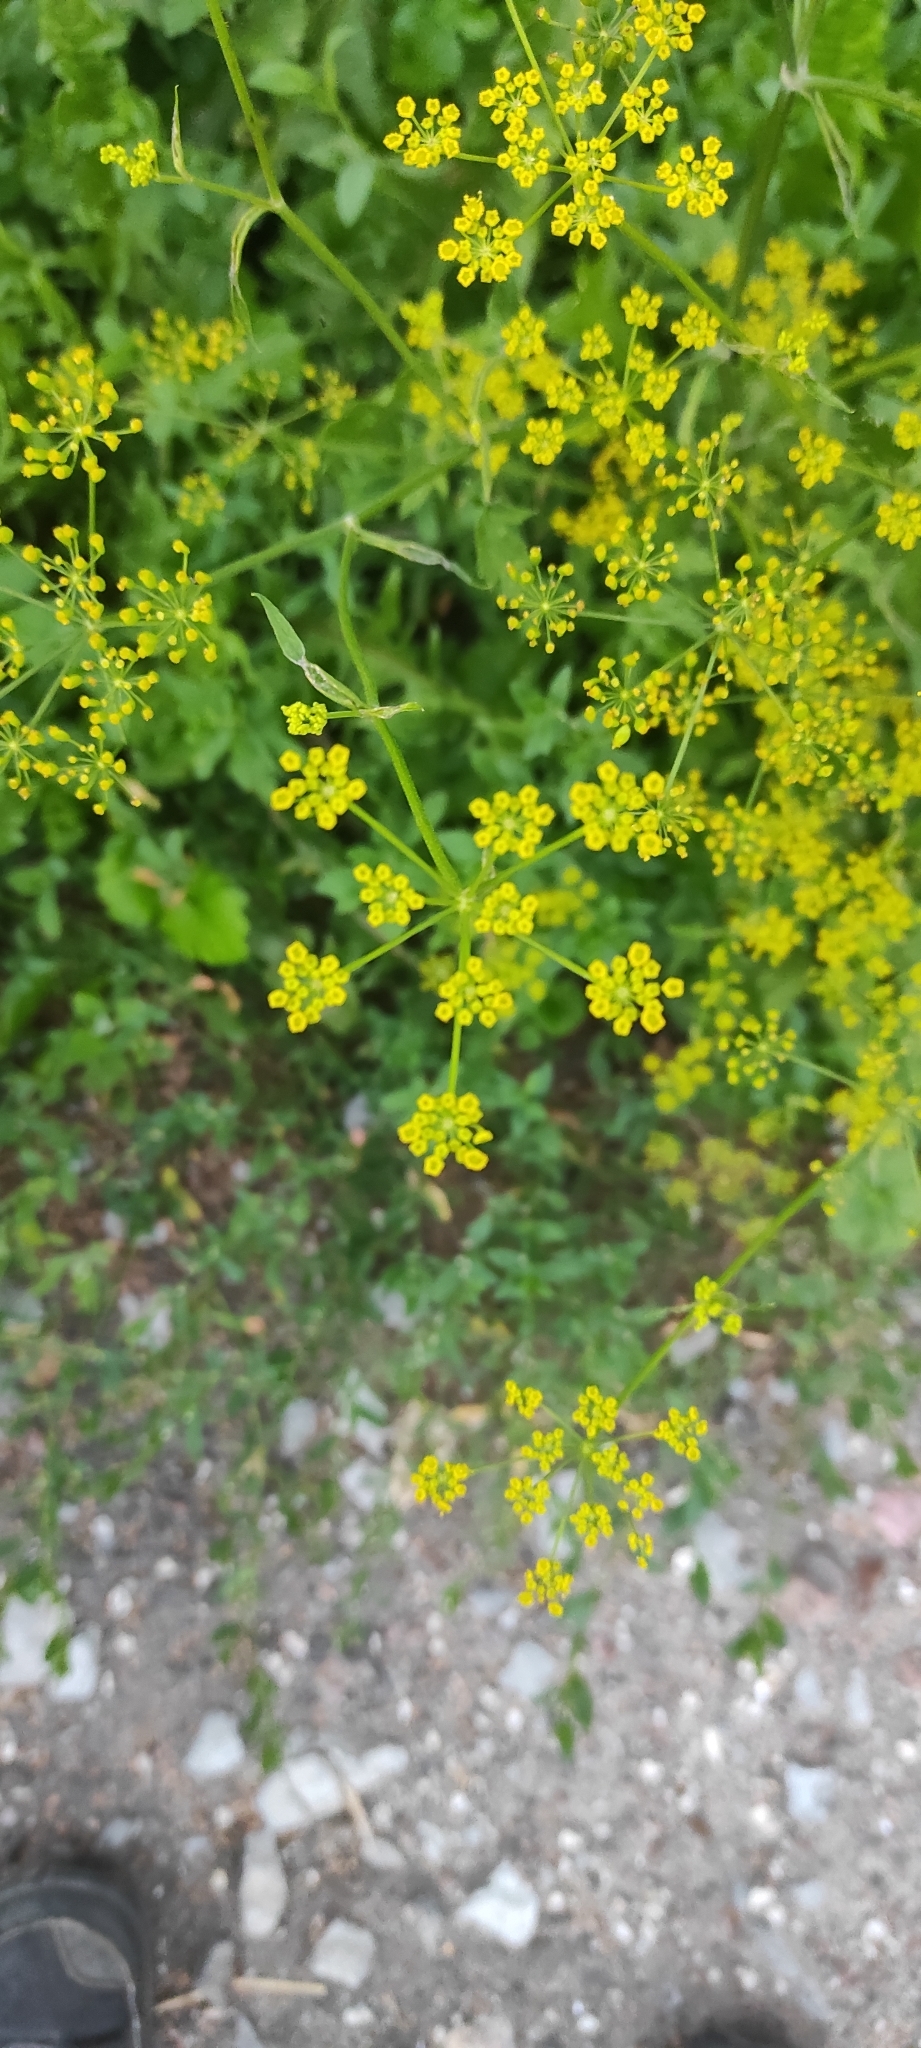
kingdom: Plantae
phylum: Tracheophyta
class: Magnoliopsida
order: Apiales
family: Apiaceae
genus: Pastinaca
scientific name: Pastinaca sativa
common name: Wild parsnip
